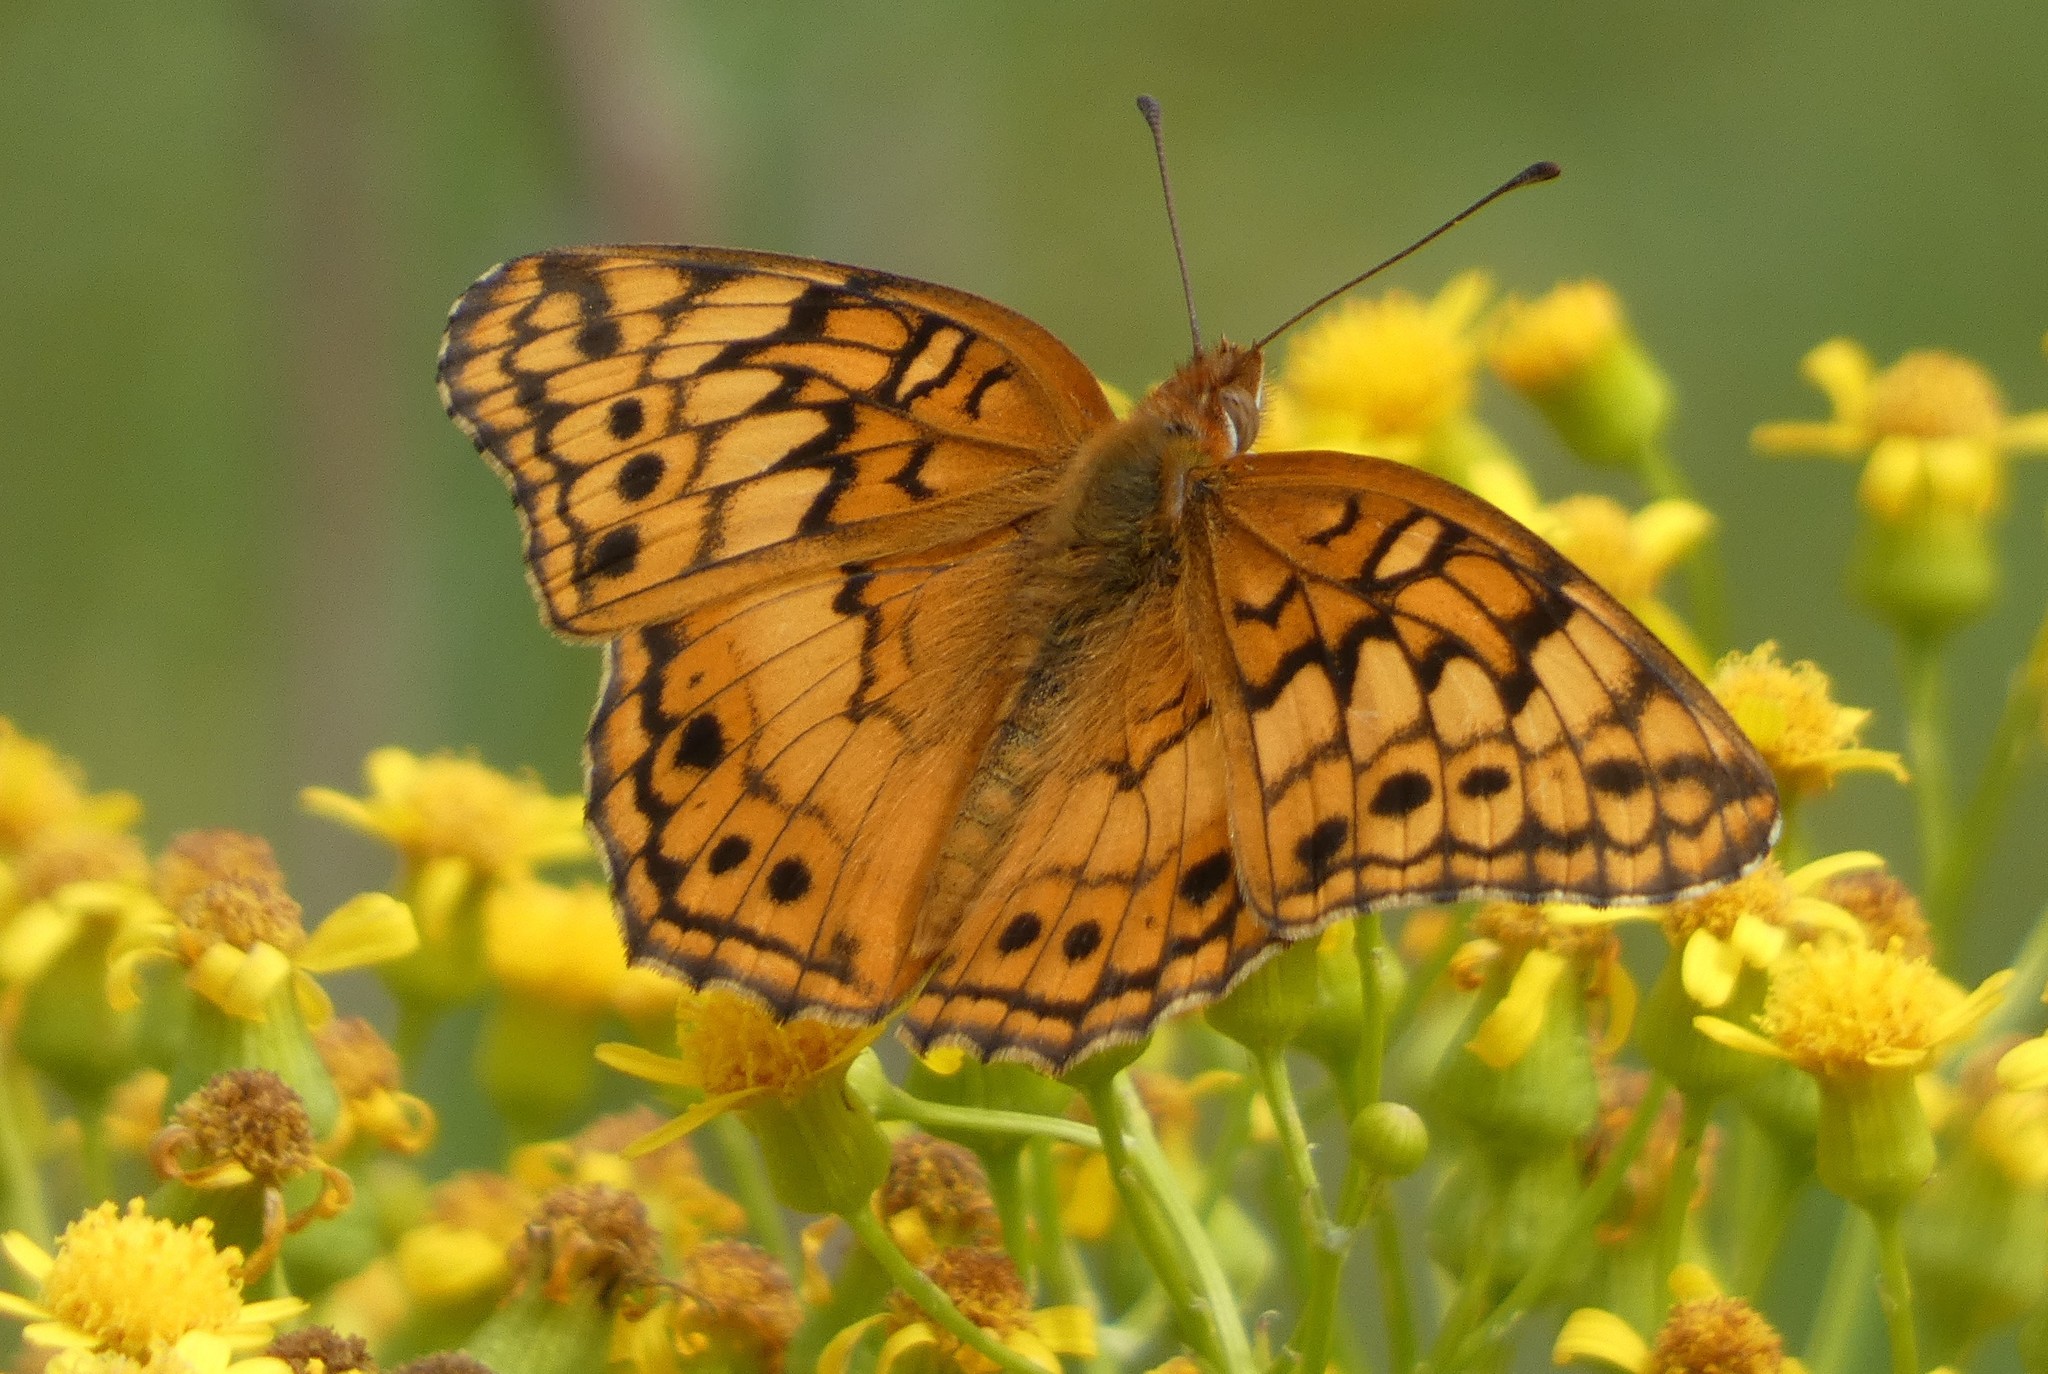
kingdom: Animalia
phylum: Arthropoda
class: Insecta
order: Lepidoptera
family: Nymphalidae
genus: Euptoieta
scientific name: Euptoieta claudia
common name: Variegated fritillary
